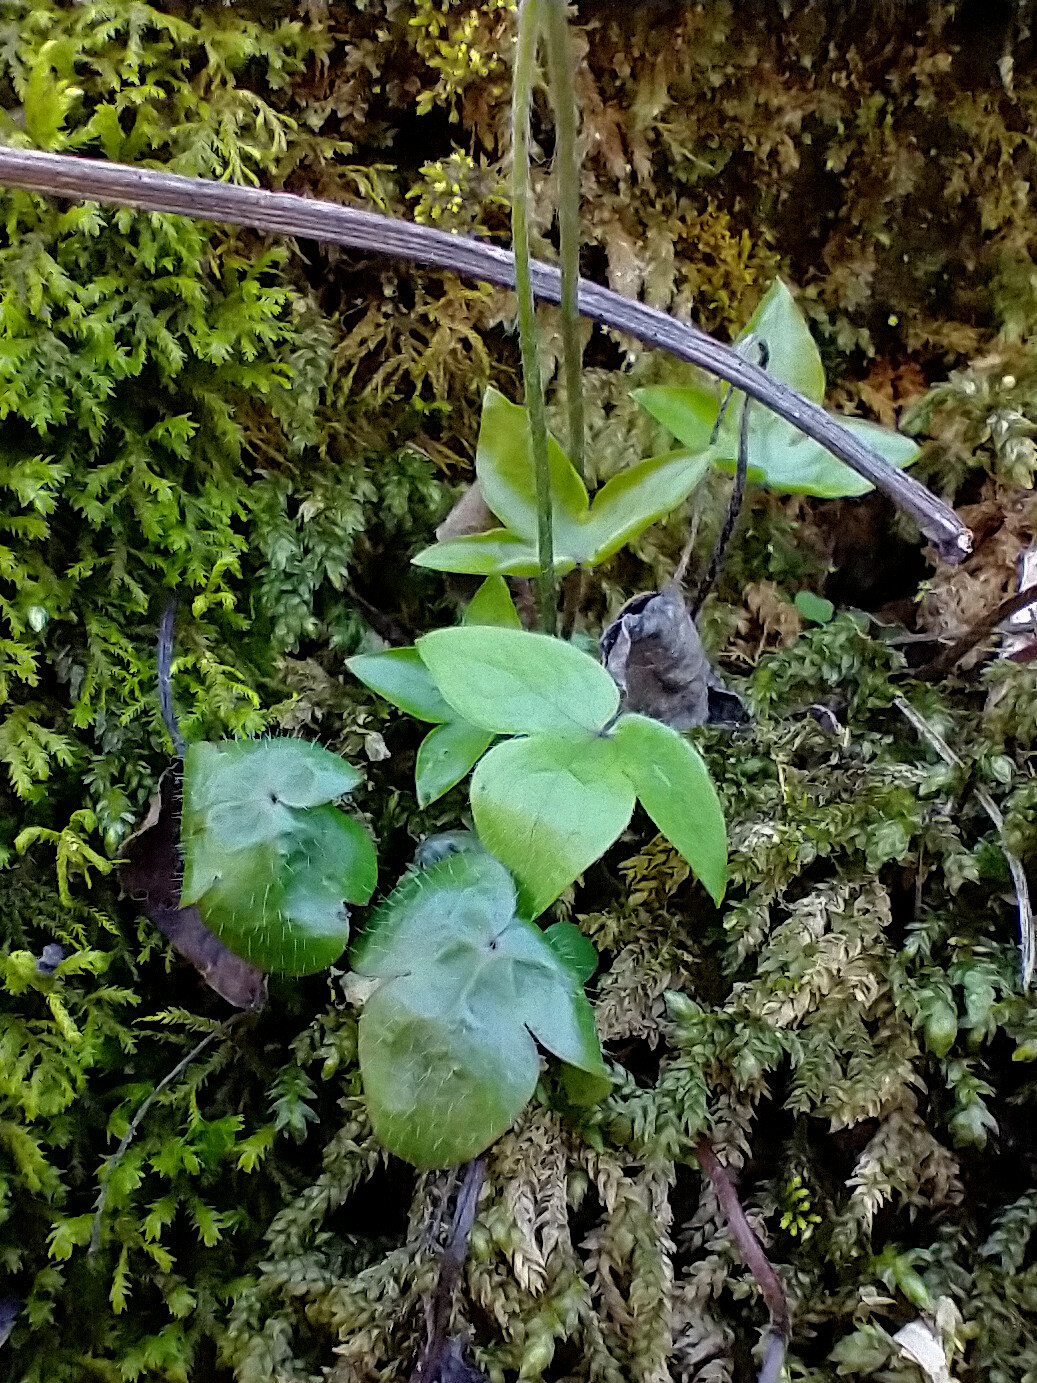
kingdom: Plantae
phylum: Tracheophyta
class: Magnoliopsida
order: Ranunculales
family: Ranunculaceae
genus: Hepatica
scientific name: Hepatica acutiloba
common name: Sharp-lobed hepatica
